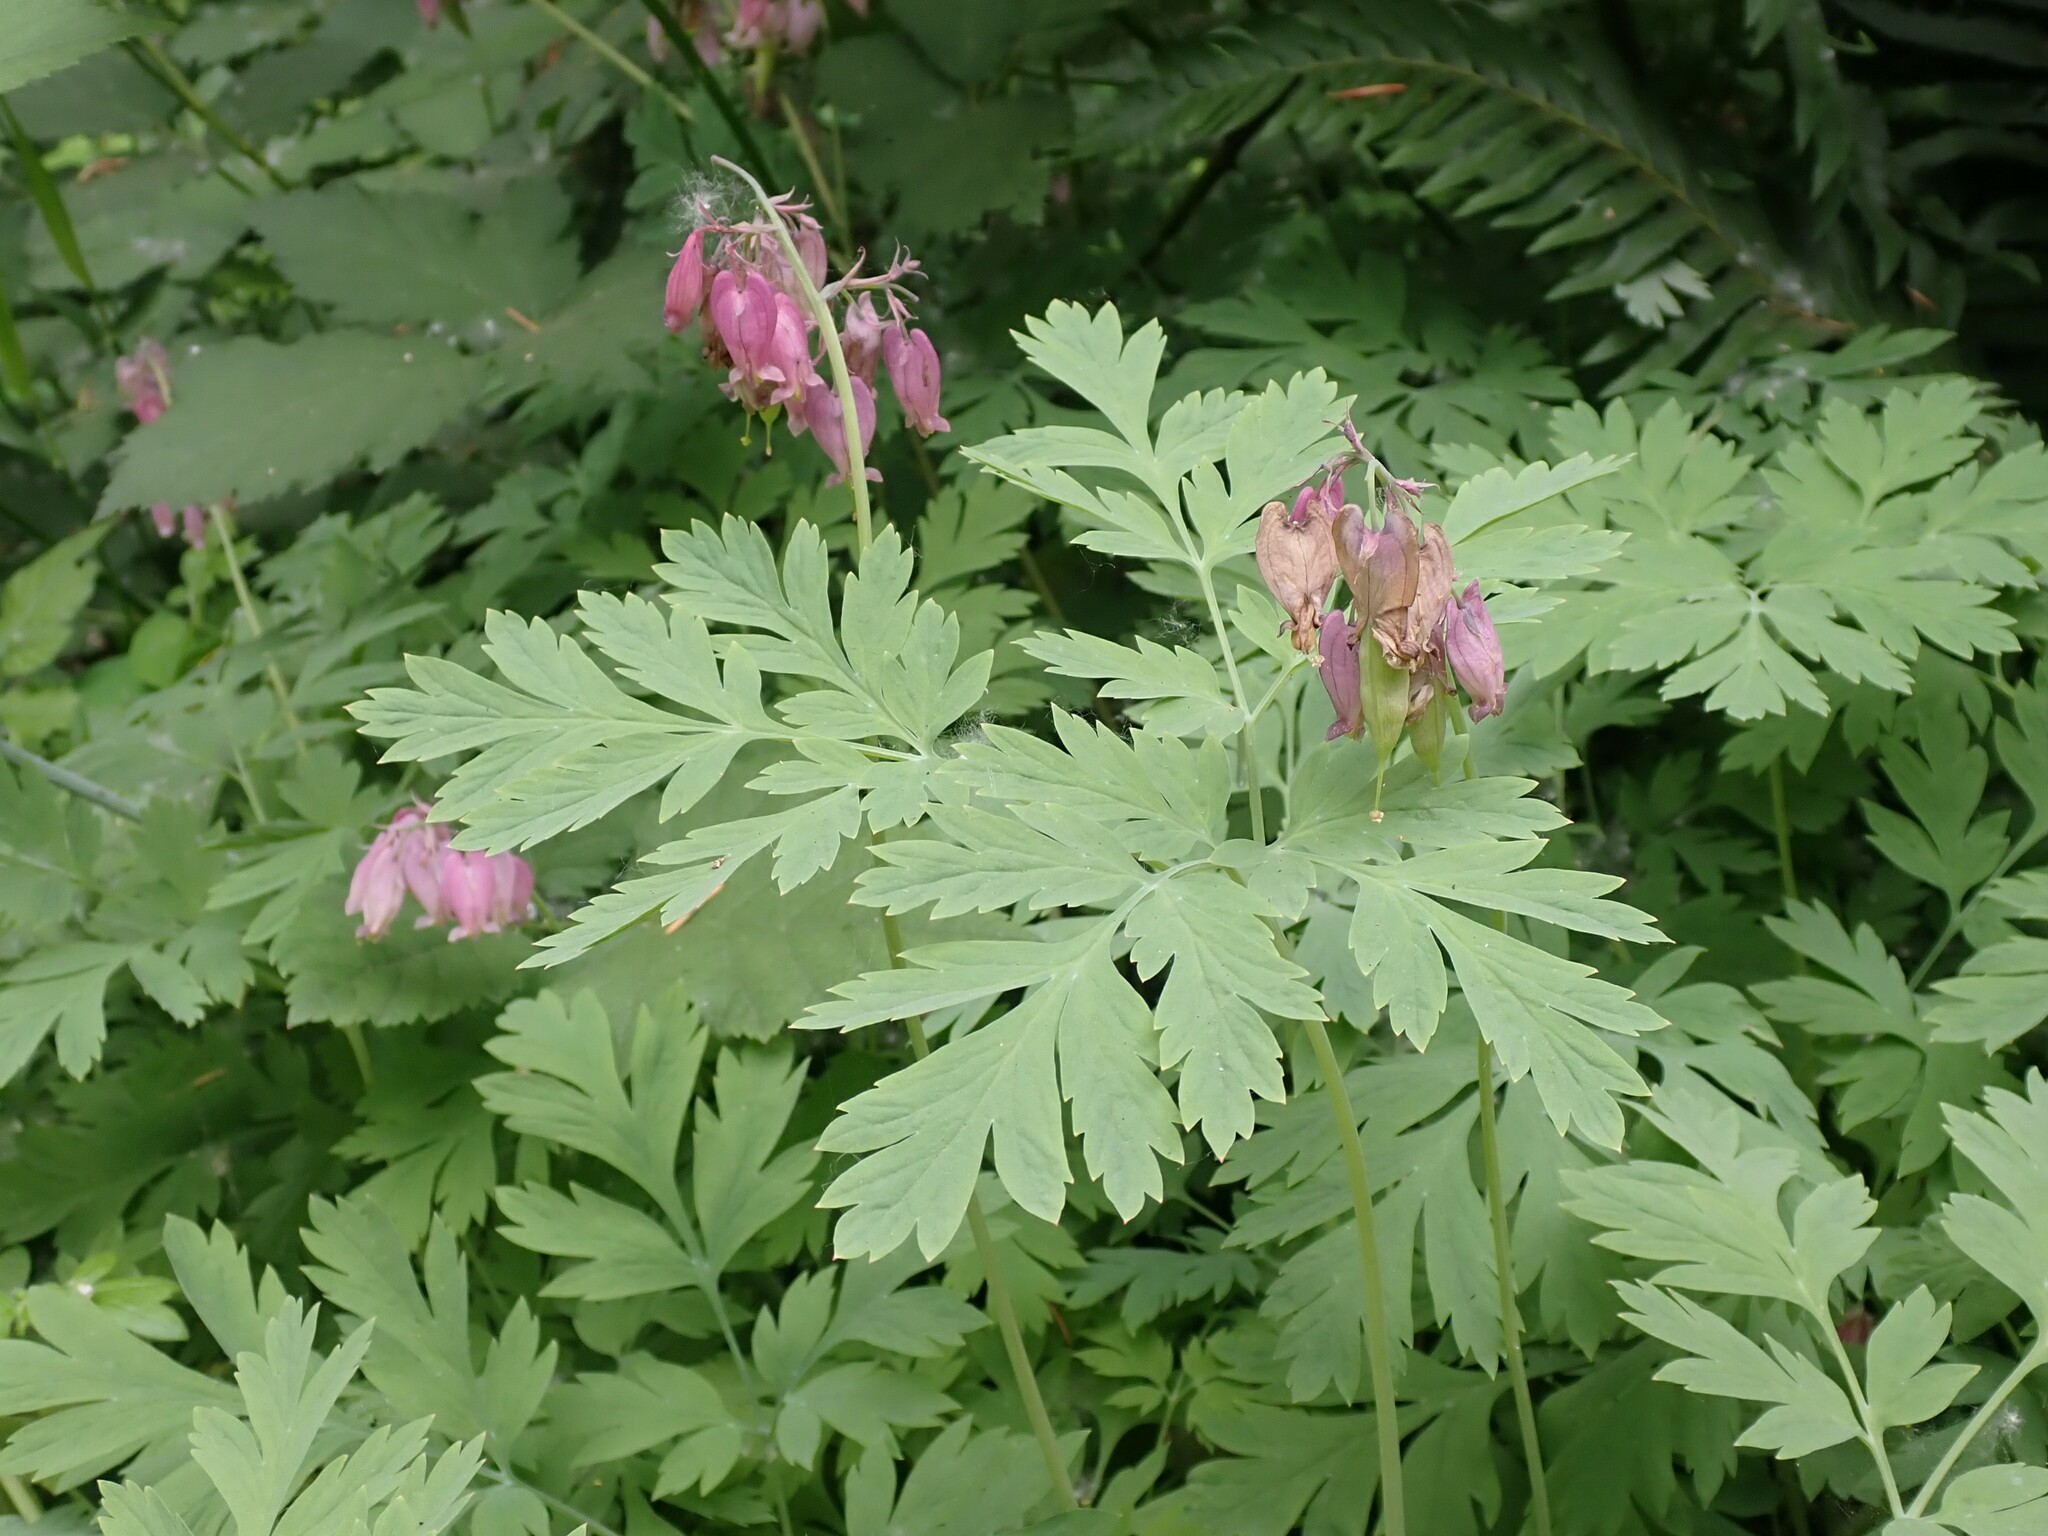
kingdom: Plantae
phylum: Tracheophyta
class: Magnoliopsida
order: Ranunculales
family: Papaveraceae
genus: Dicentra
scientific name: Dicentra formosa
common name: Bleeding-heart
